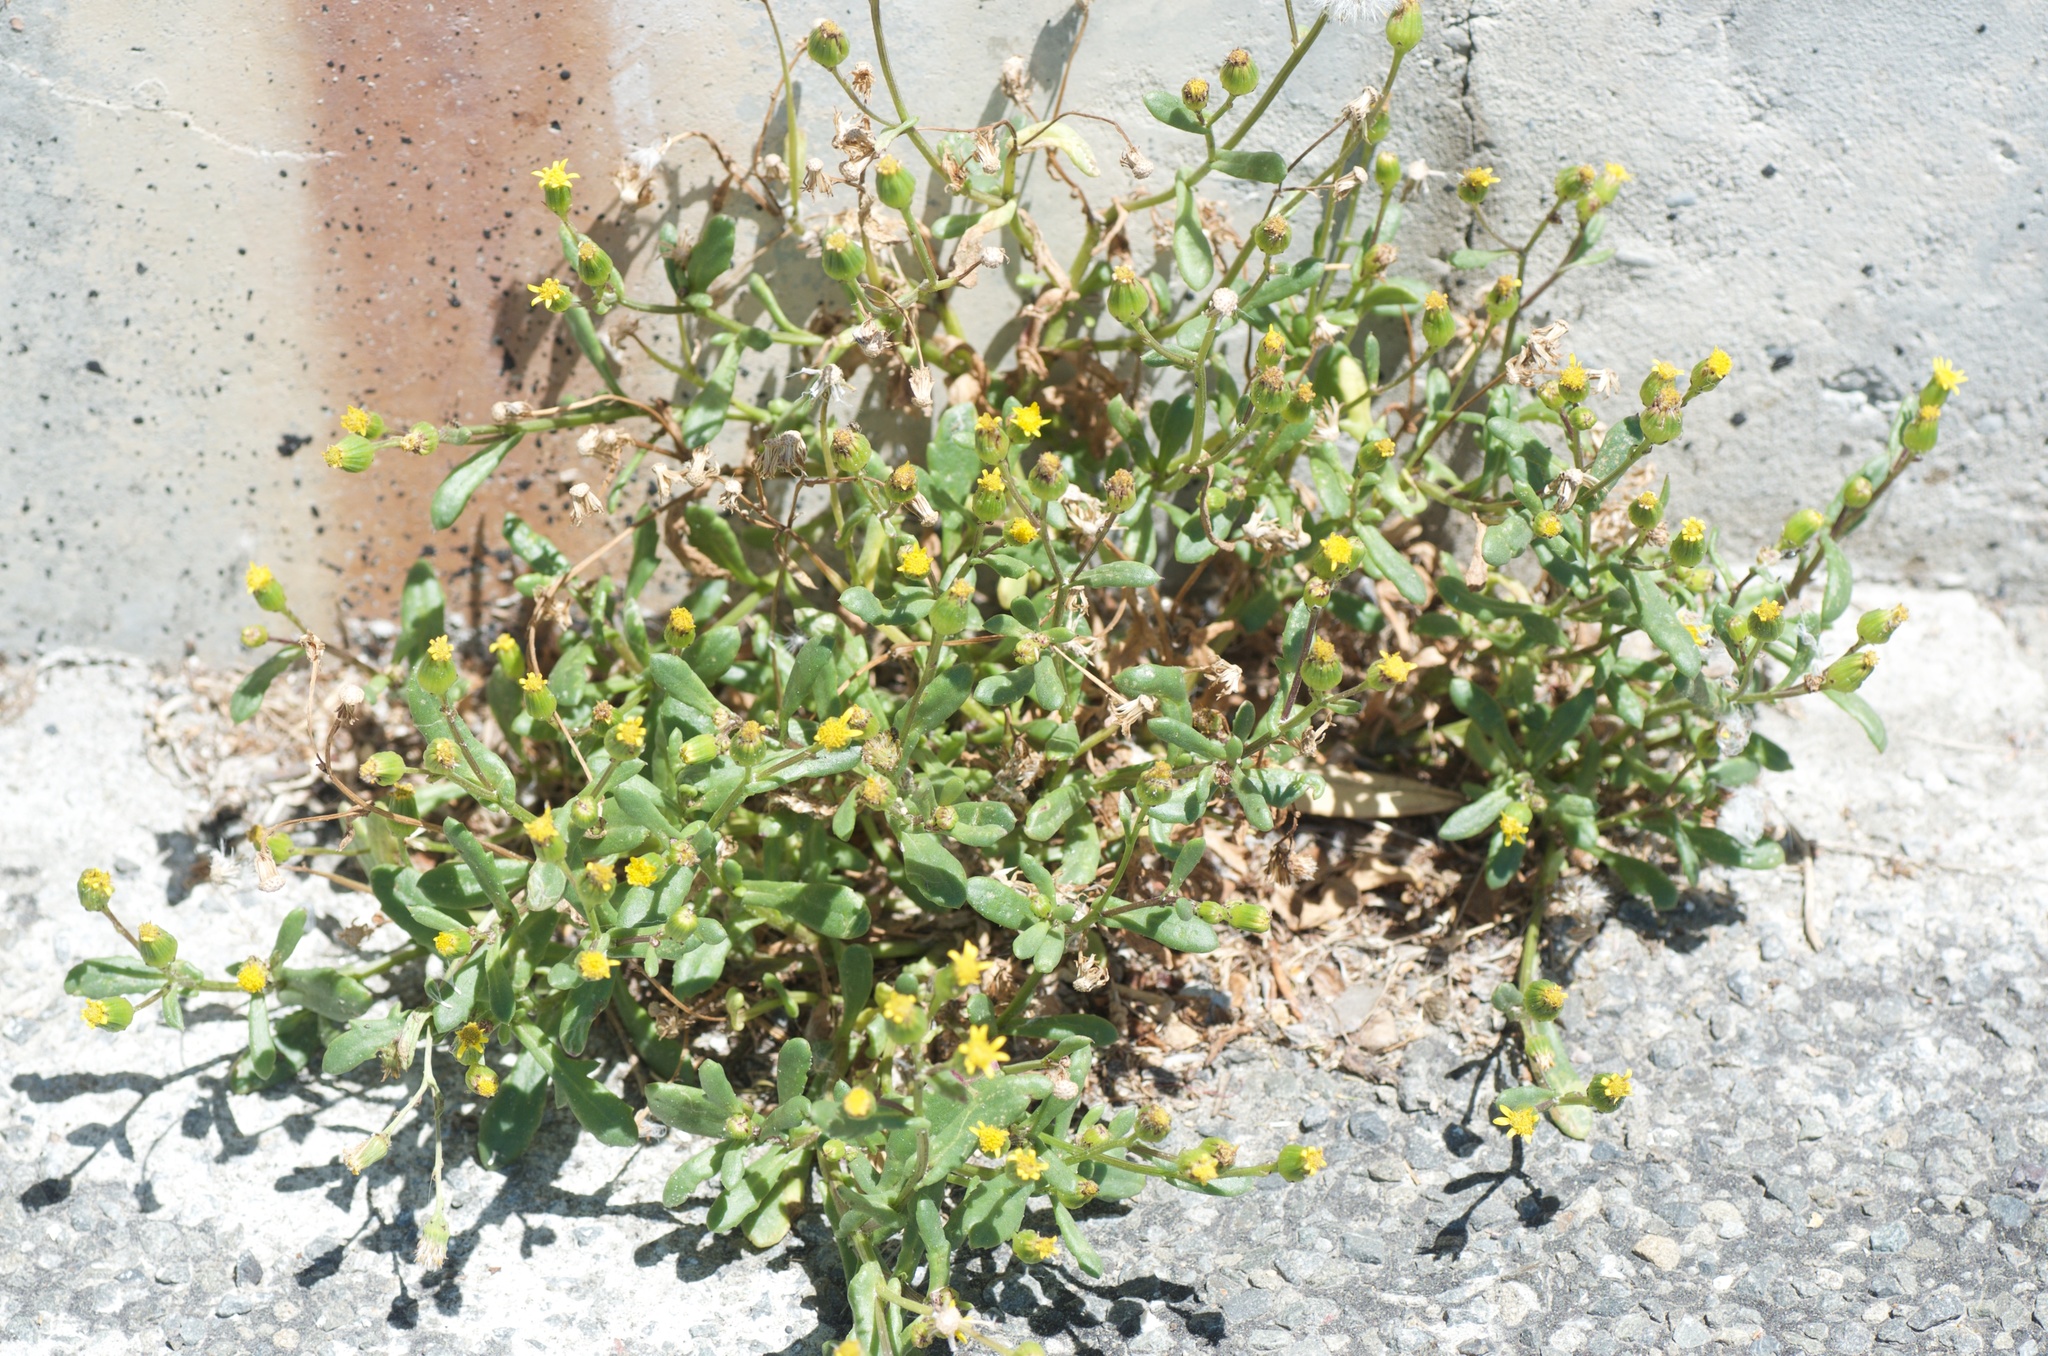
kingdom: Plantae
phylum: Tracheophyta
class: Magnoliopsida
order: Asterales
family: Asteraceae
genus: Senecio
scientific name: Senecio lautus
